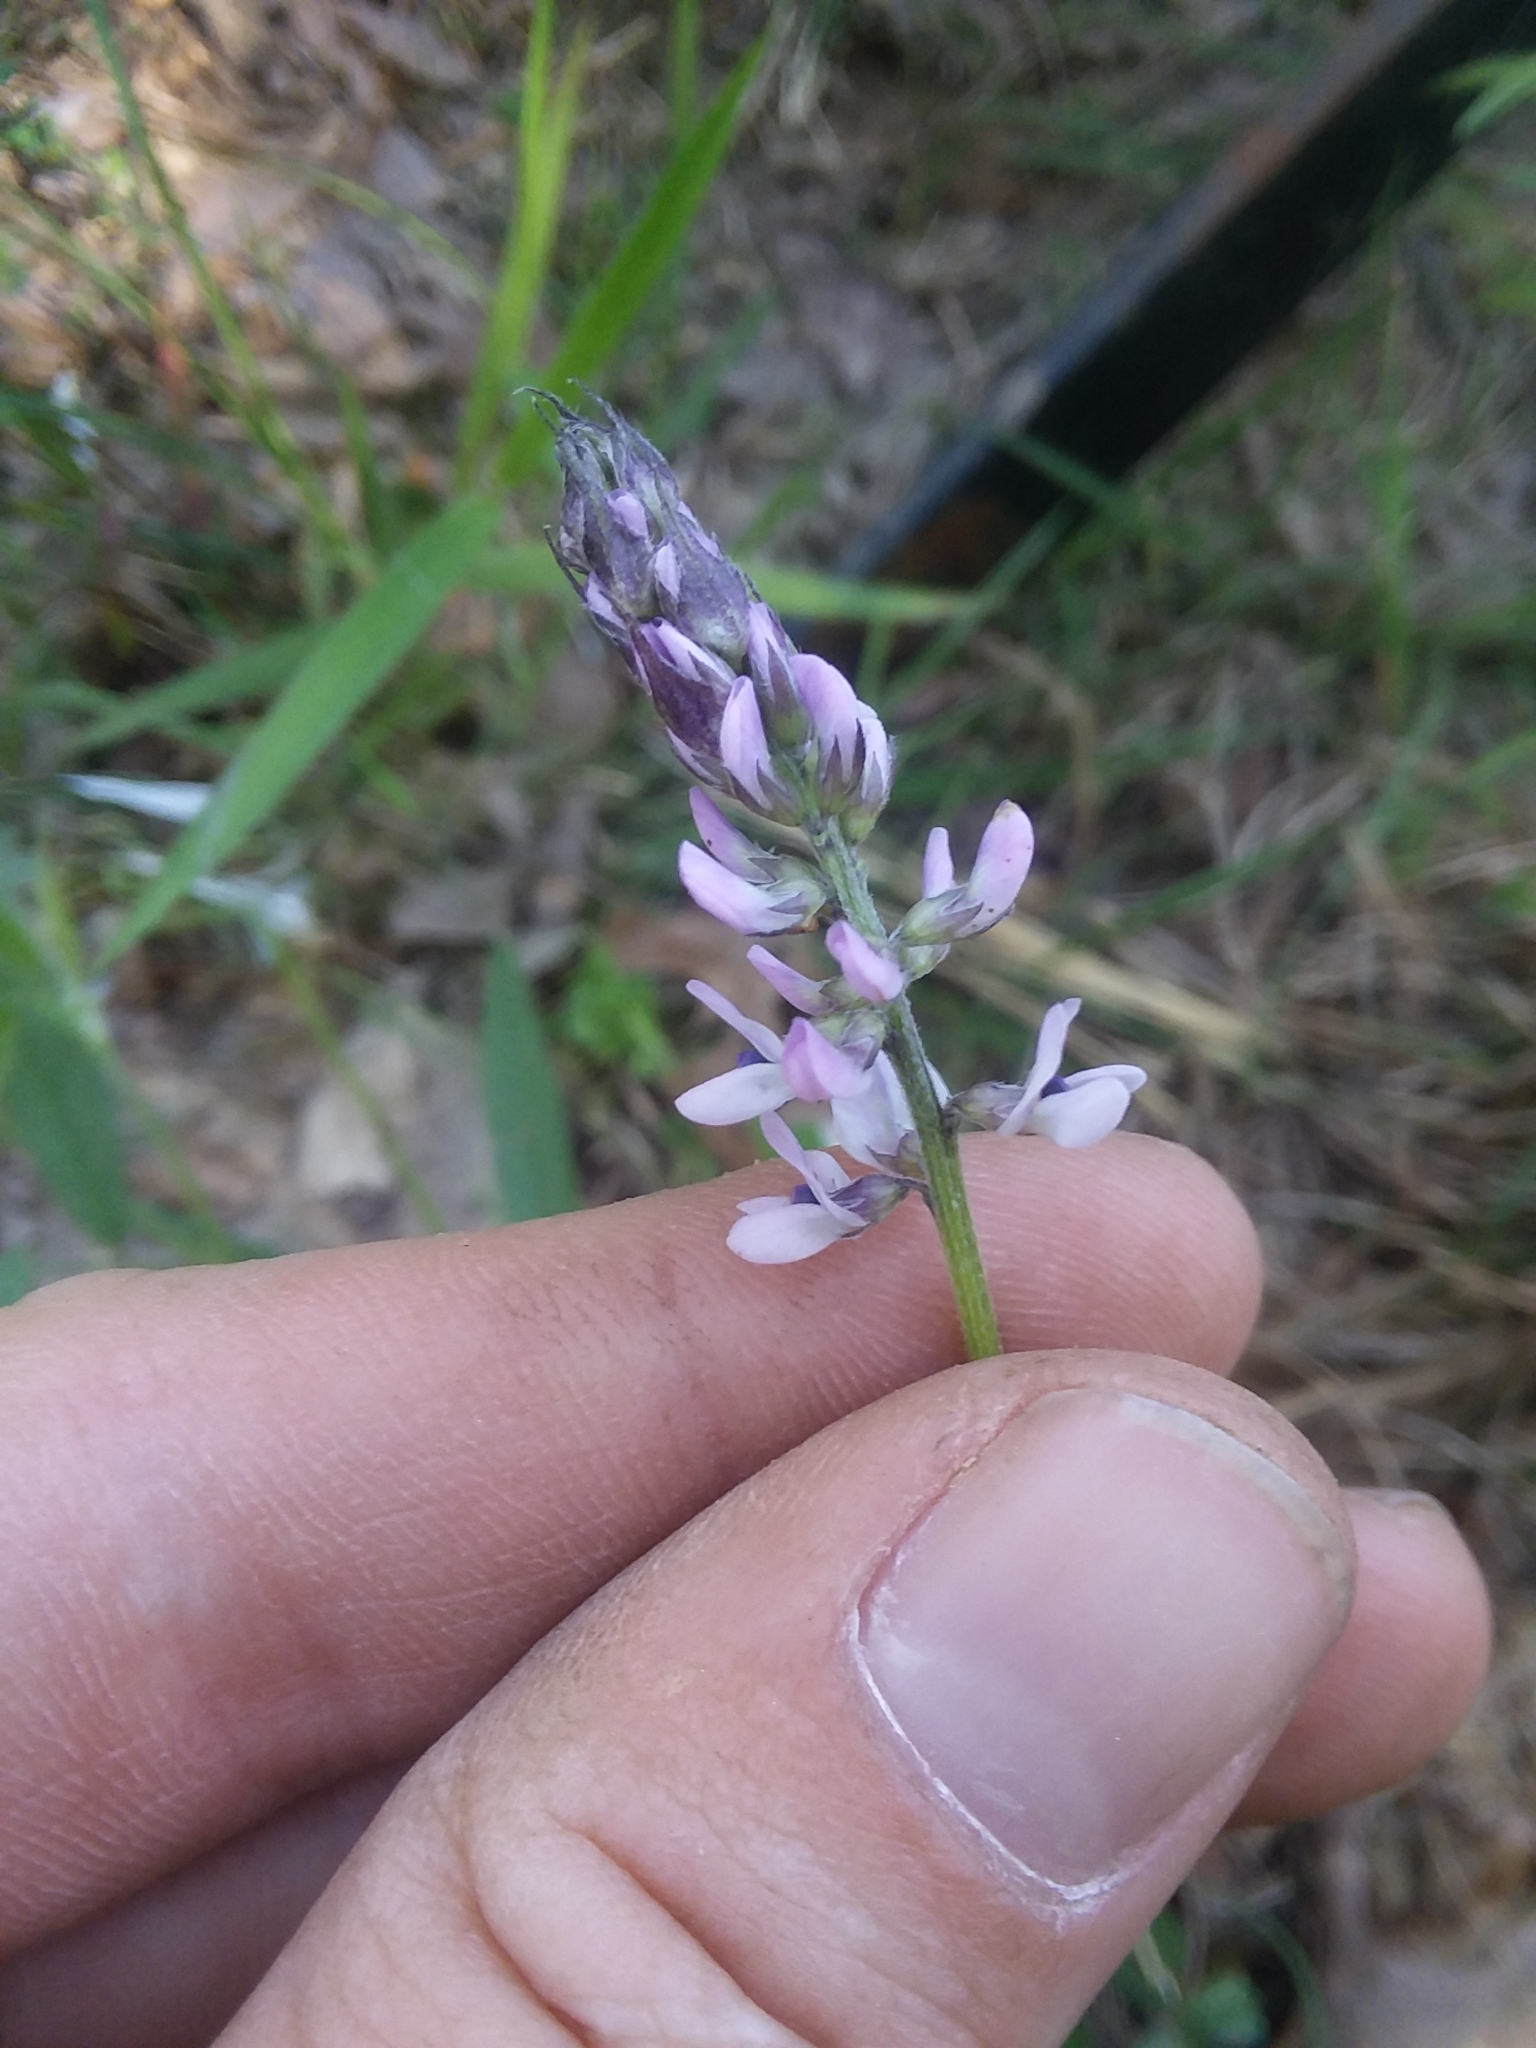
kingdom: Plantae
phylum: Tracheophyta
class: Magnoliopsida
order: Fabales
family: Fabaceae
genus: Orbexilum
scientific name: Orbexilum pedunculatum
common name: Sampson's snakeroot
